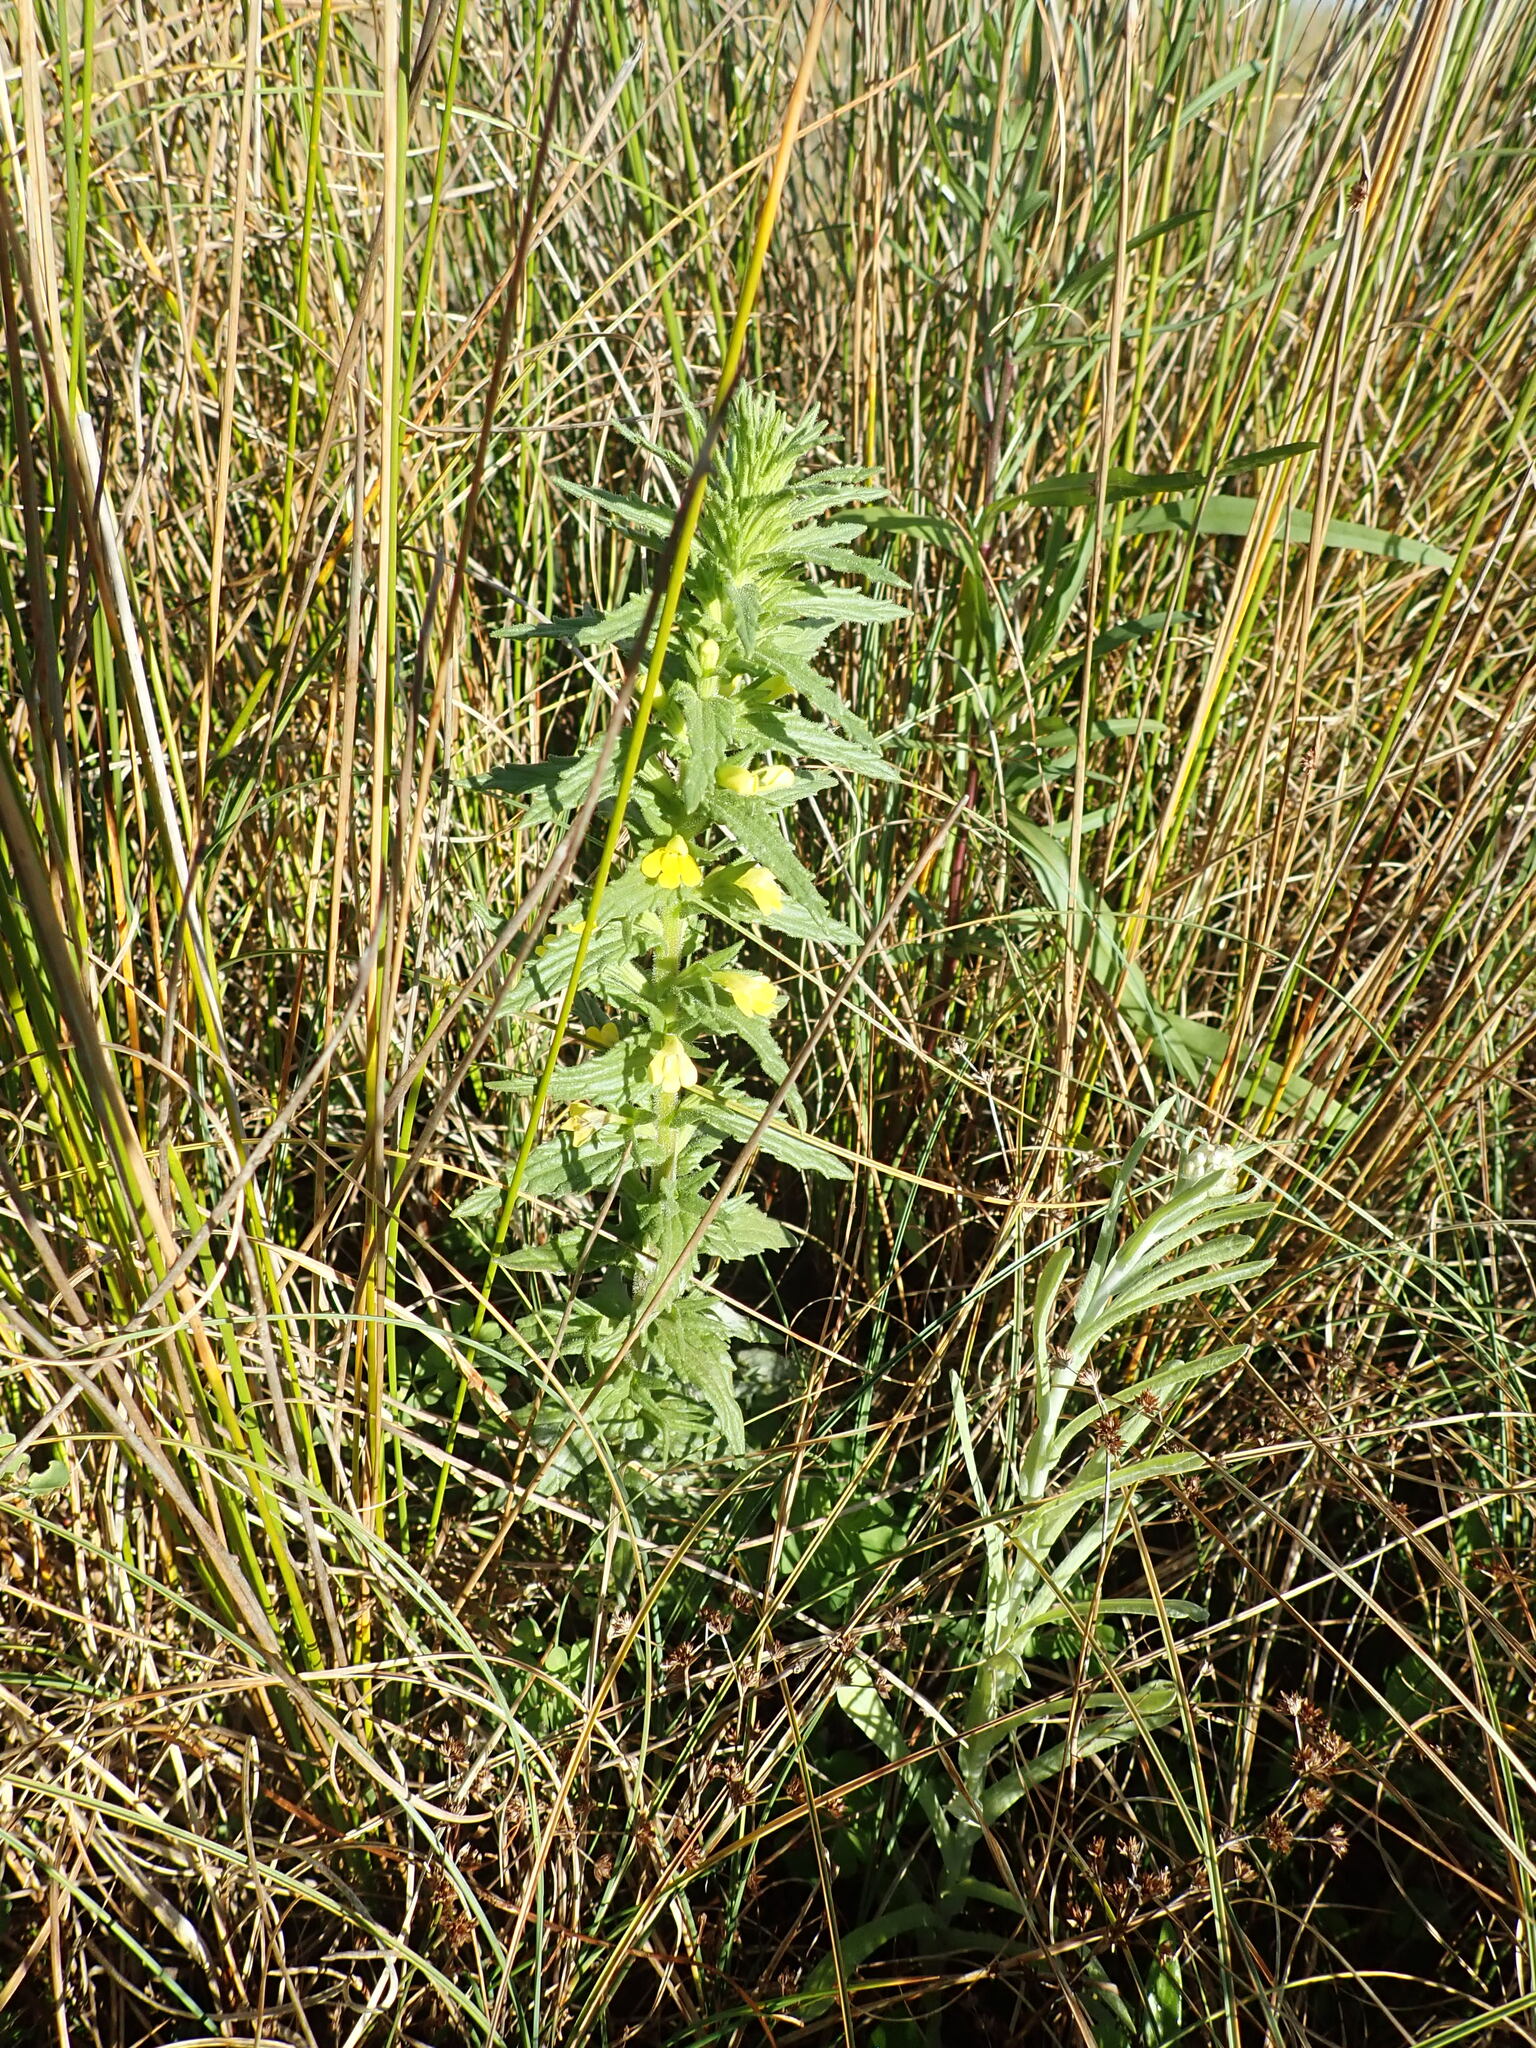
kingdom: Plantae
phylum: Tracheophyta
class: Magnoliopsida
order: Lamiales
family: Orobanchaceae
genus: Bellardia
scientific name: Bellardia viscosa
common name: Sticky parentucellia
